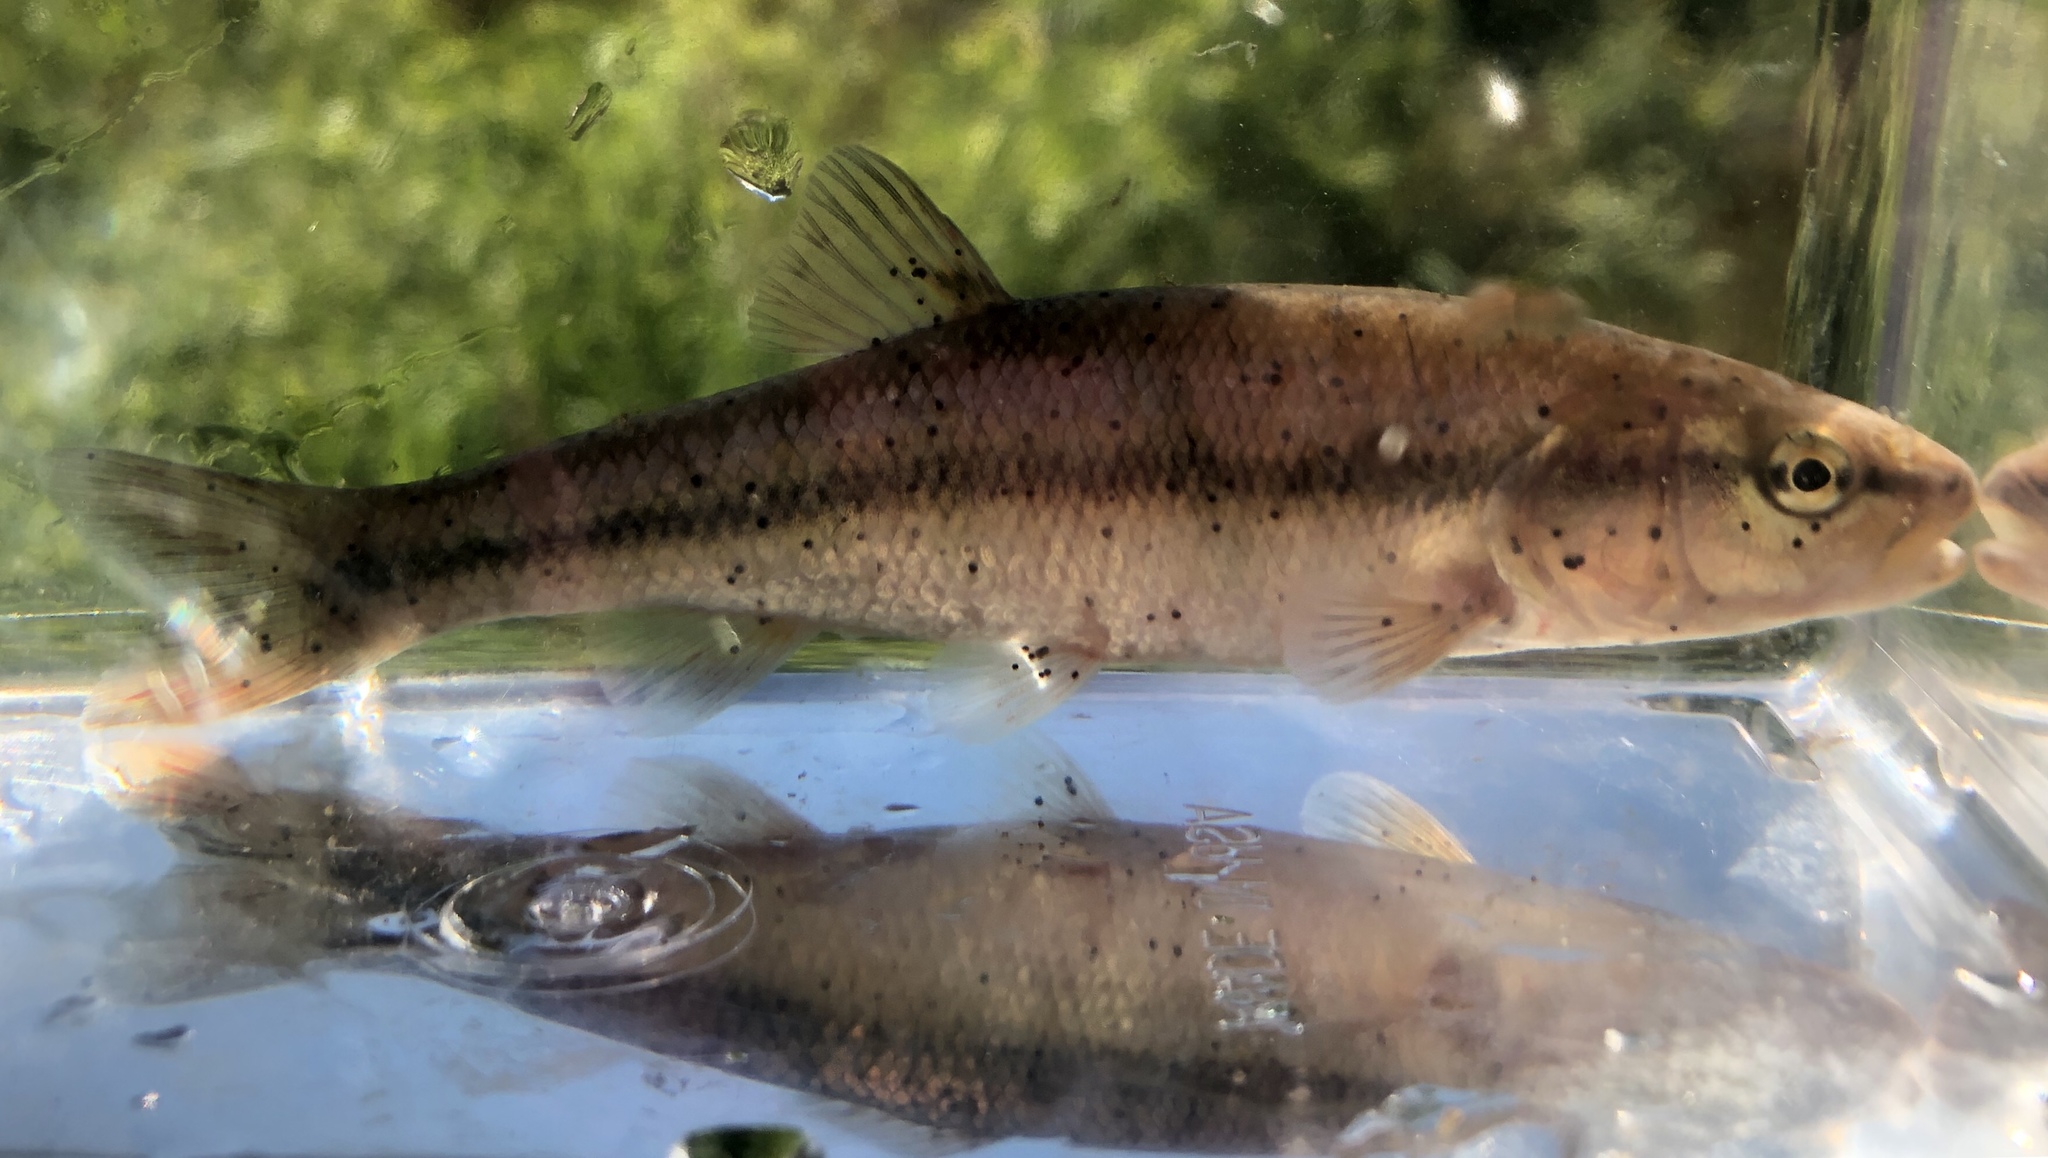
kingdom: Animalia
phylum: Chordata
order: Cypriniformes
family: Cyprinidae
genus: Semotilus
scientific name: Semotilus atromaculatus
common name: Creek chub
